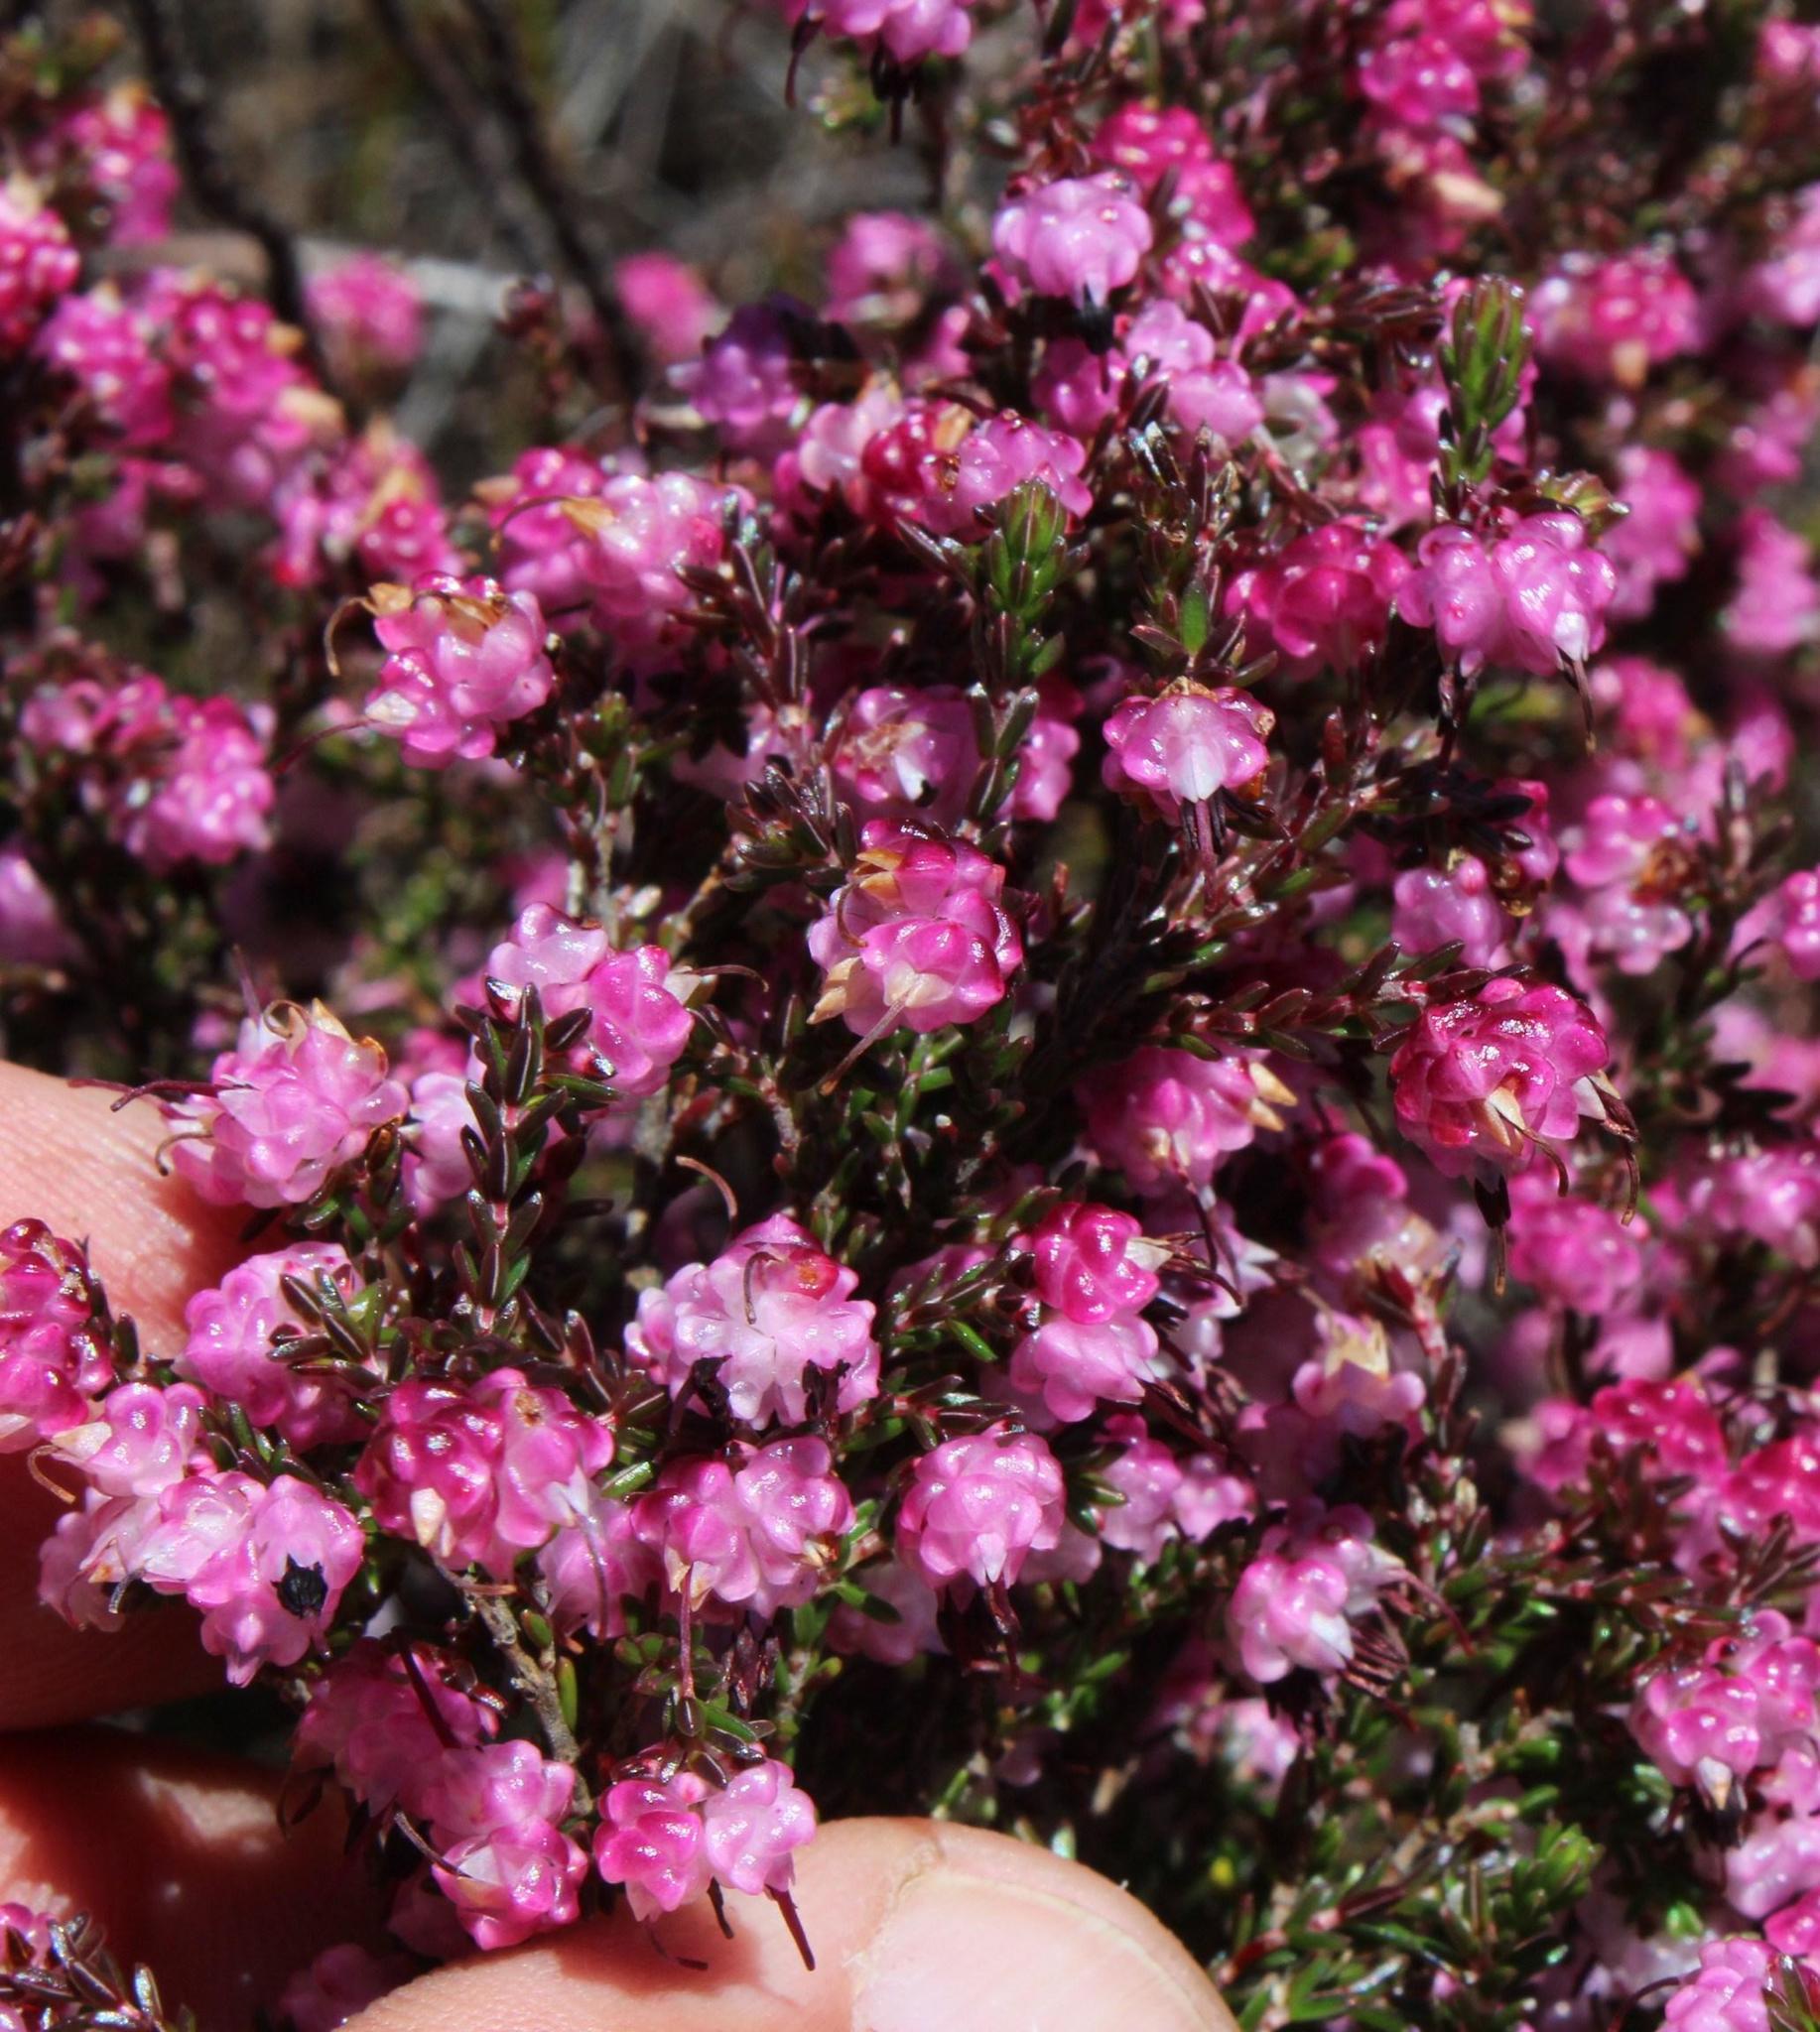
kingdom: Plantae
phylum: Tracheophyta
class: Magnoliopsida
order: Ericales
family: Ericaceae
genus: Erica
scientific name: Erica spumosa
